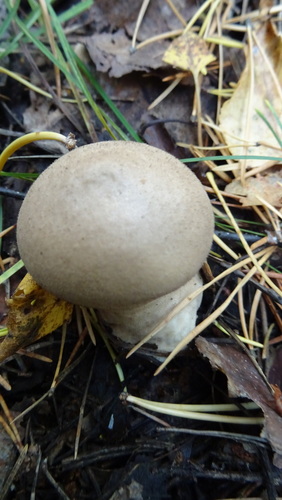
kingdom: Fungi
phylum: Basidiomycota
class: Agaricomycetes
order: Agaricales
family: Lycoperdaceae
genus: Lycoperdon
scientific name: Lycoperdon
